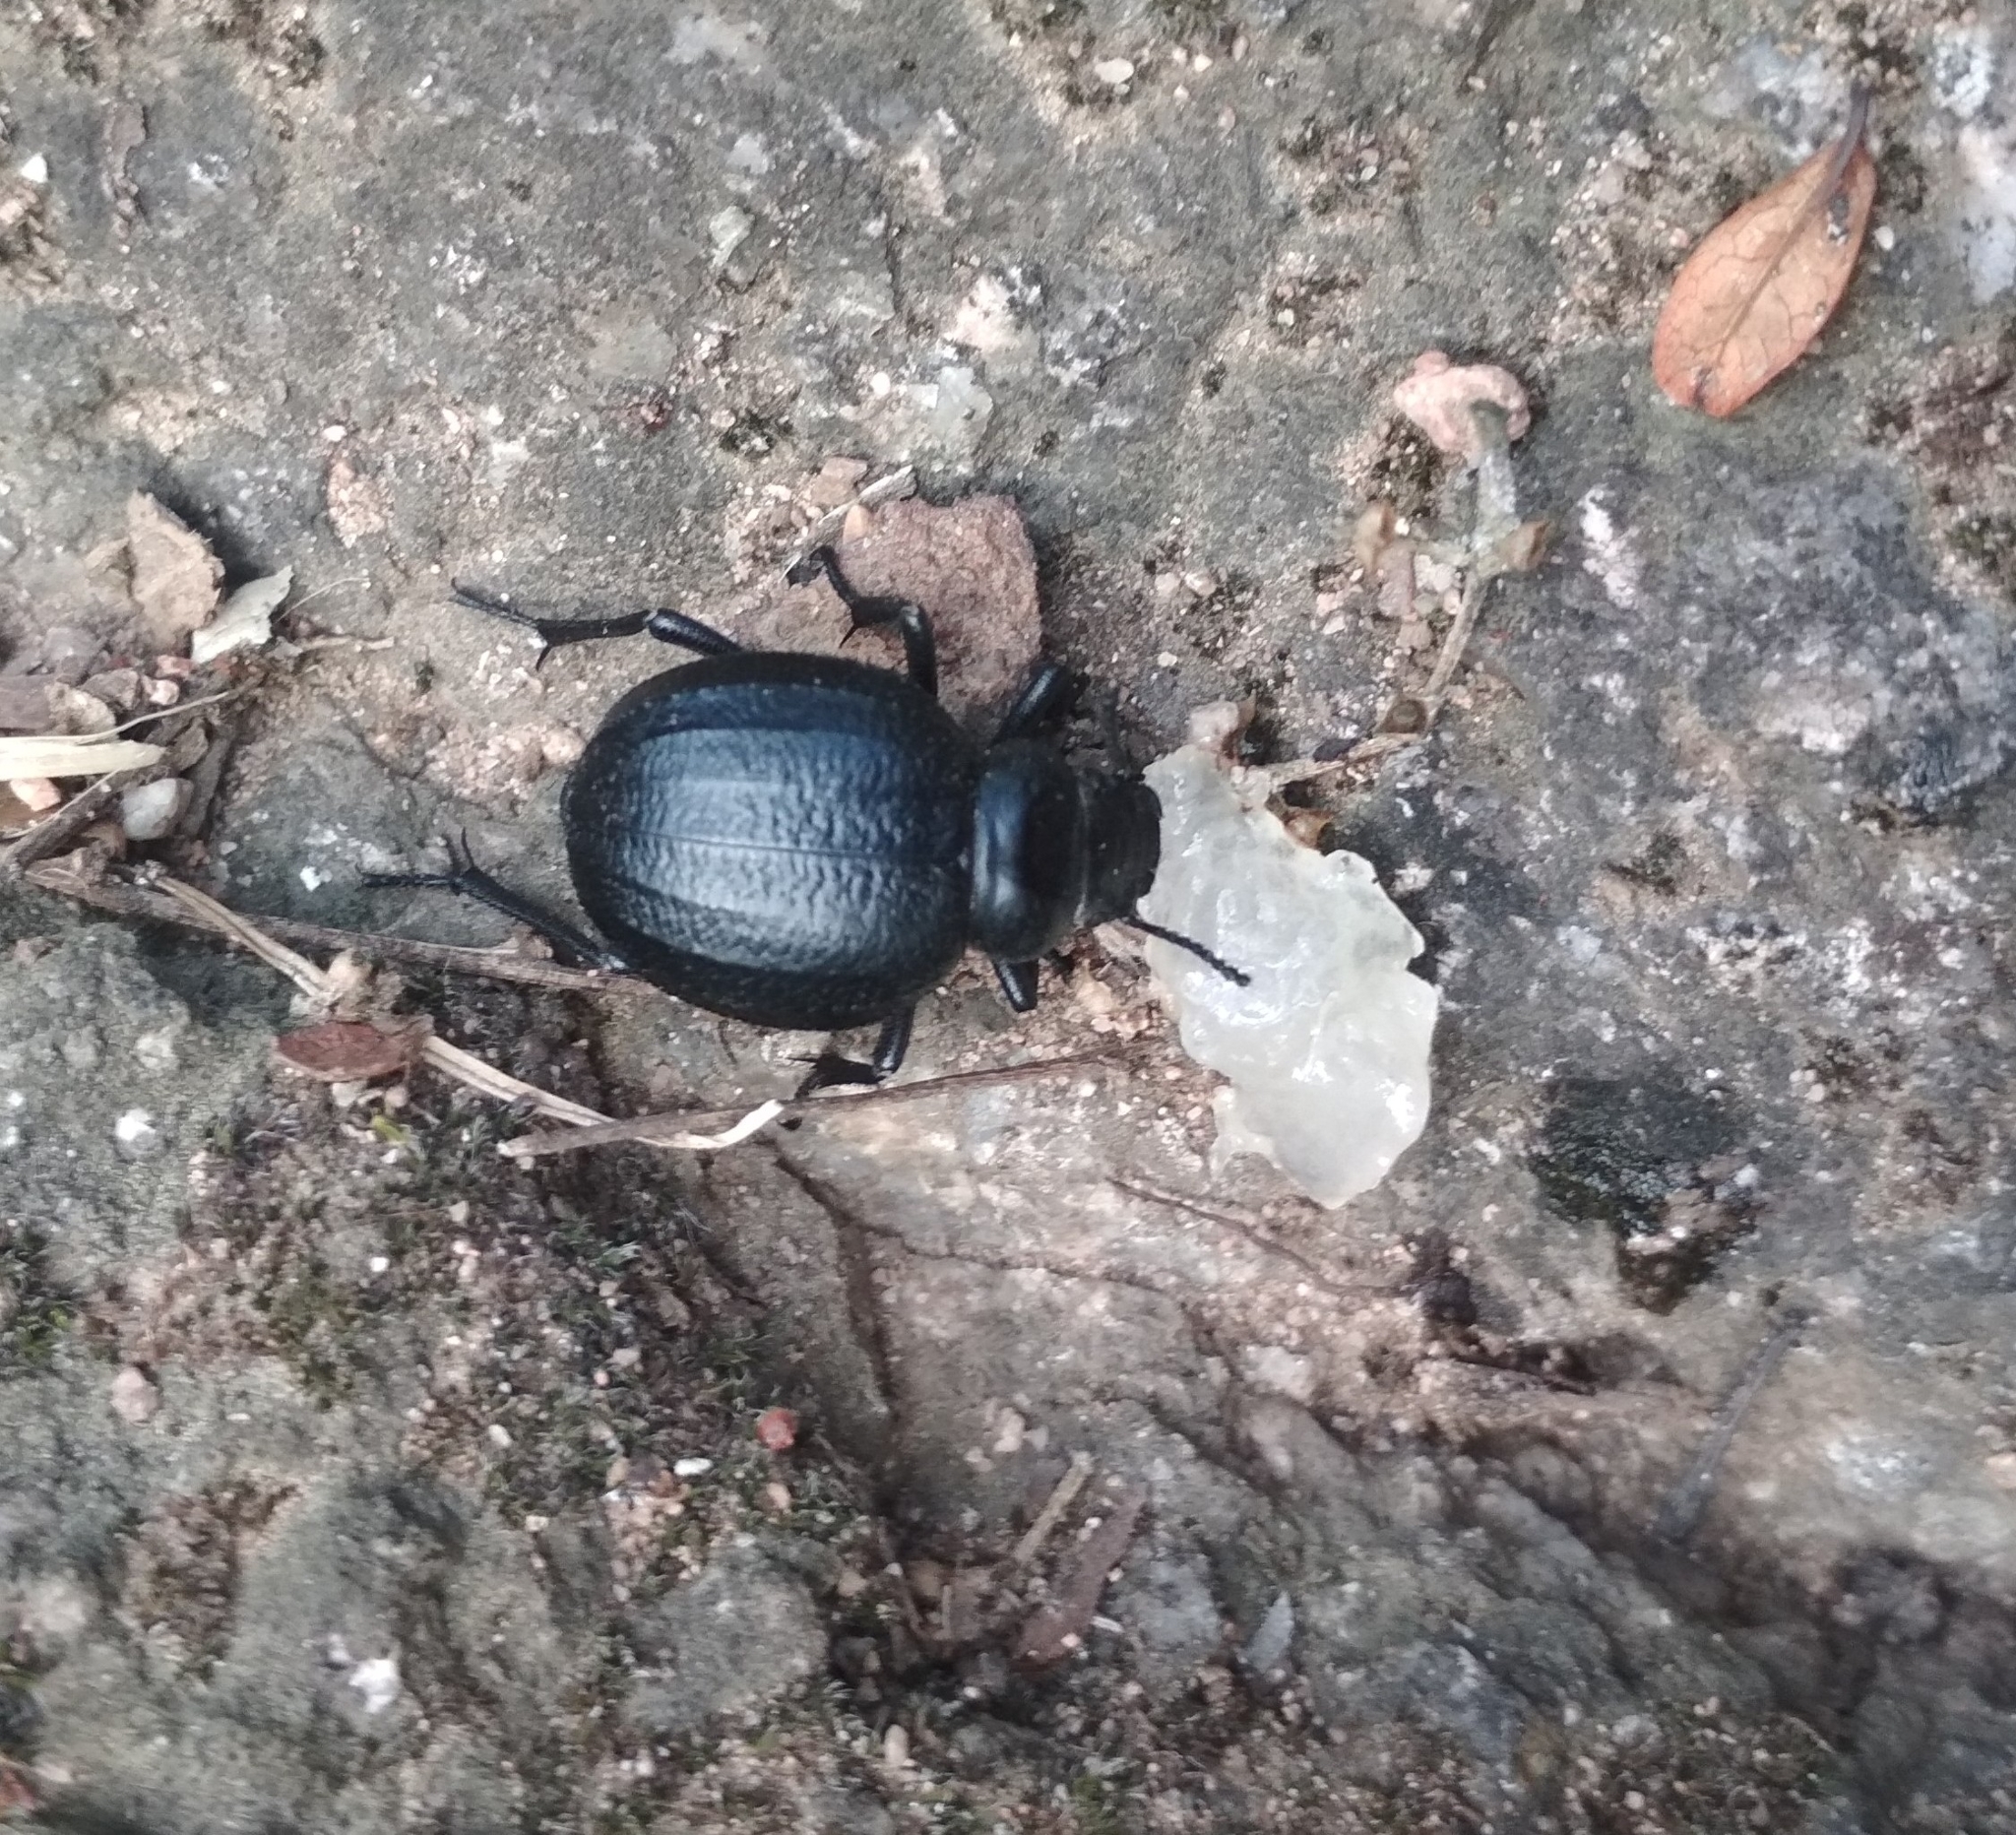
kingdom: Animalia
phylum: Arthropoda
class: Insecta
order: Coleoptera
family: Tenebrionidae
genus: Pimelia
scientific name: Pimelia angusticollis
